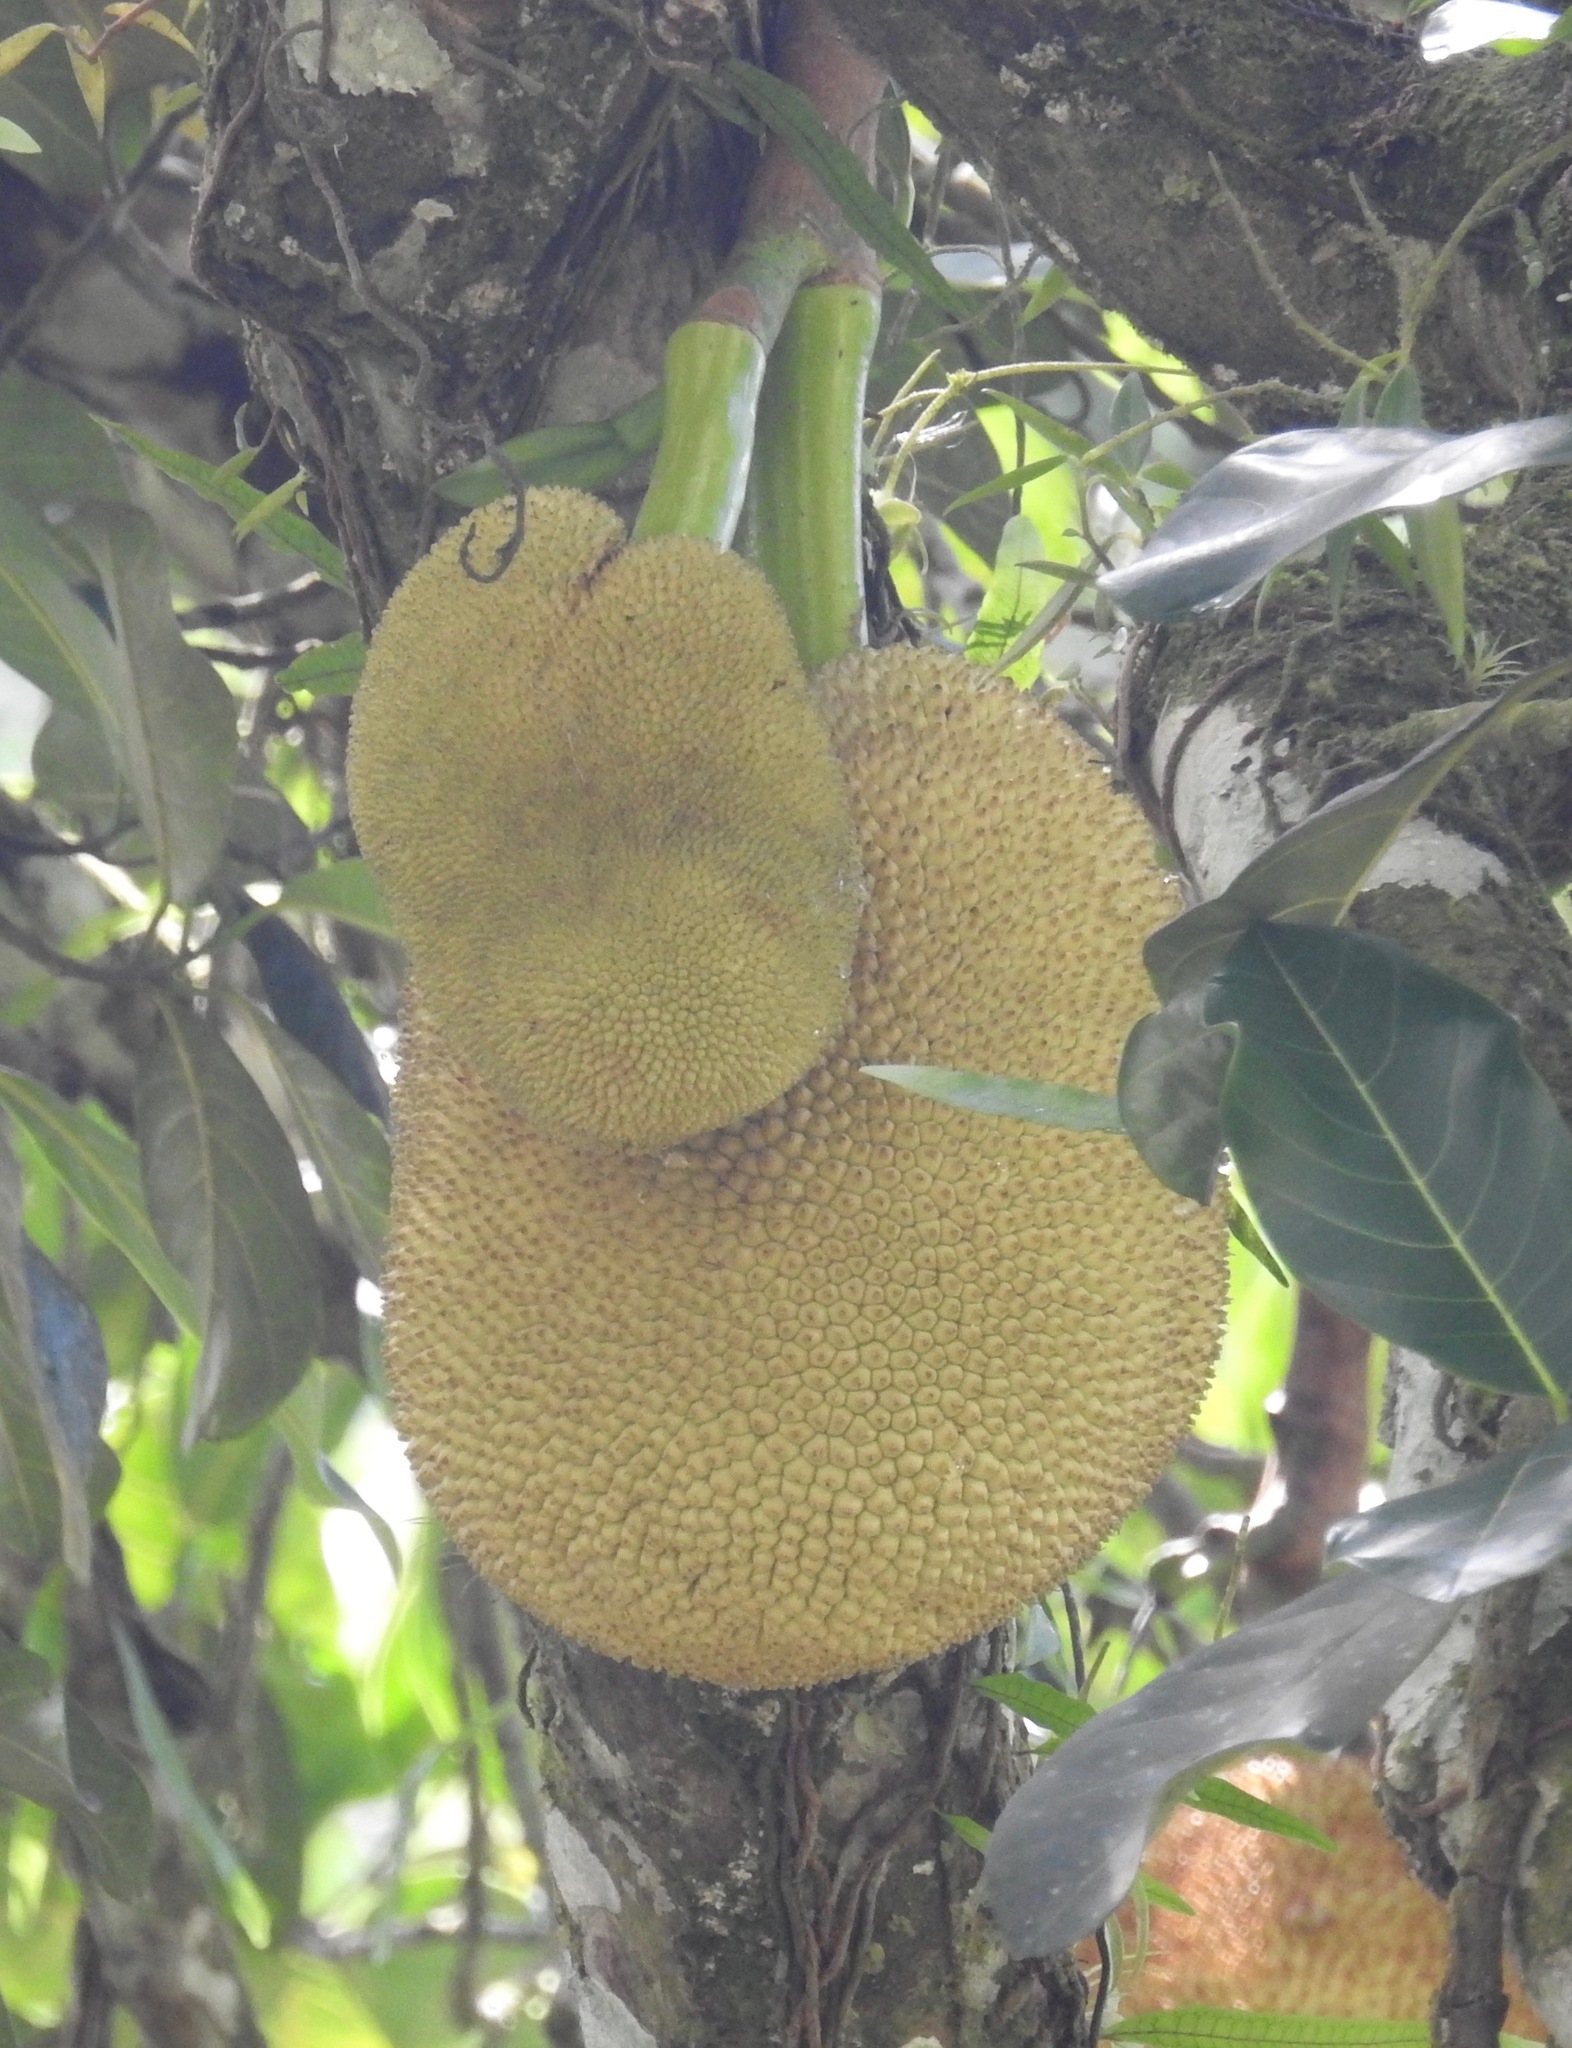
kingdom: Plantae
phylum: Tracheophyta
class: Magnoliopsida
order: Rosales
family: Moraceae
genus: Artocarpus
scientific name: Artocarpus heterophyllus
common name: Jackfruit
